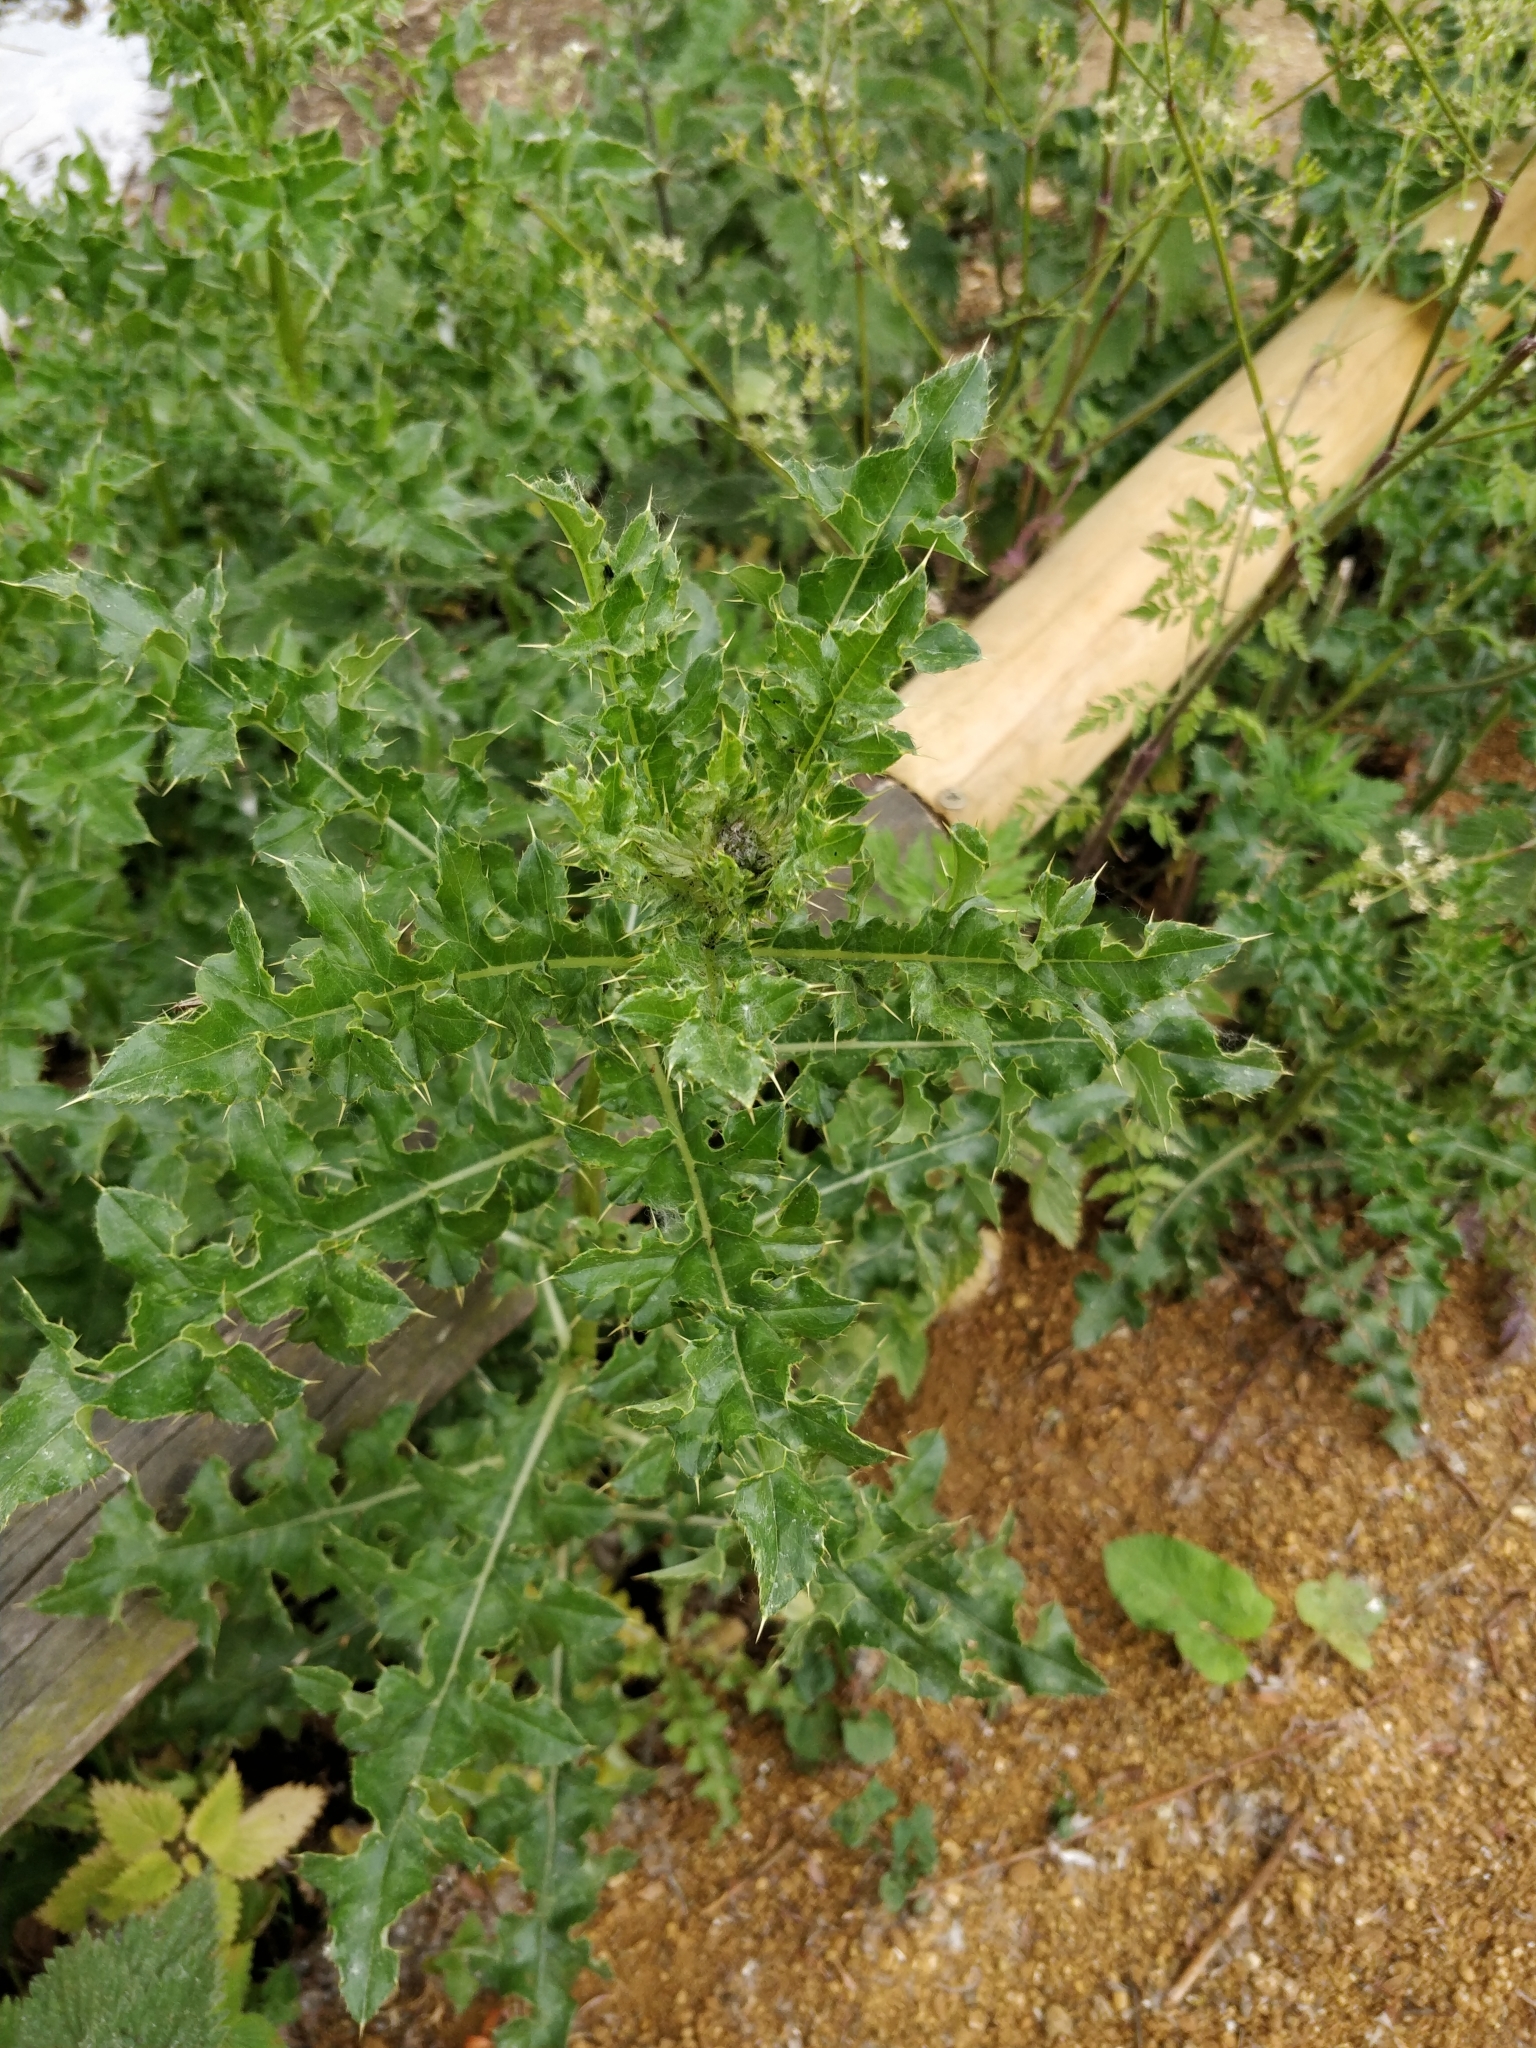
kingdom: Plantae
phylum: Tracheophyta
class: Magnoliopsida
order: Asterales
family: Asteraceae
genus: Cirsium
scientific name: Cirsium arvense
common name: Creeping thistle
